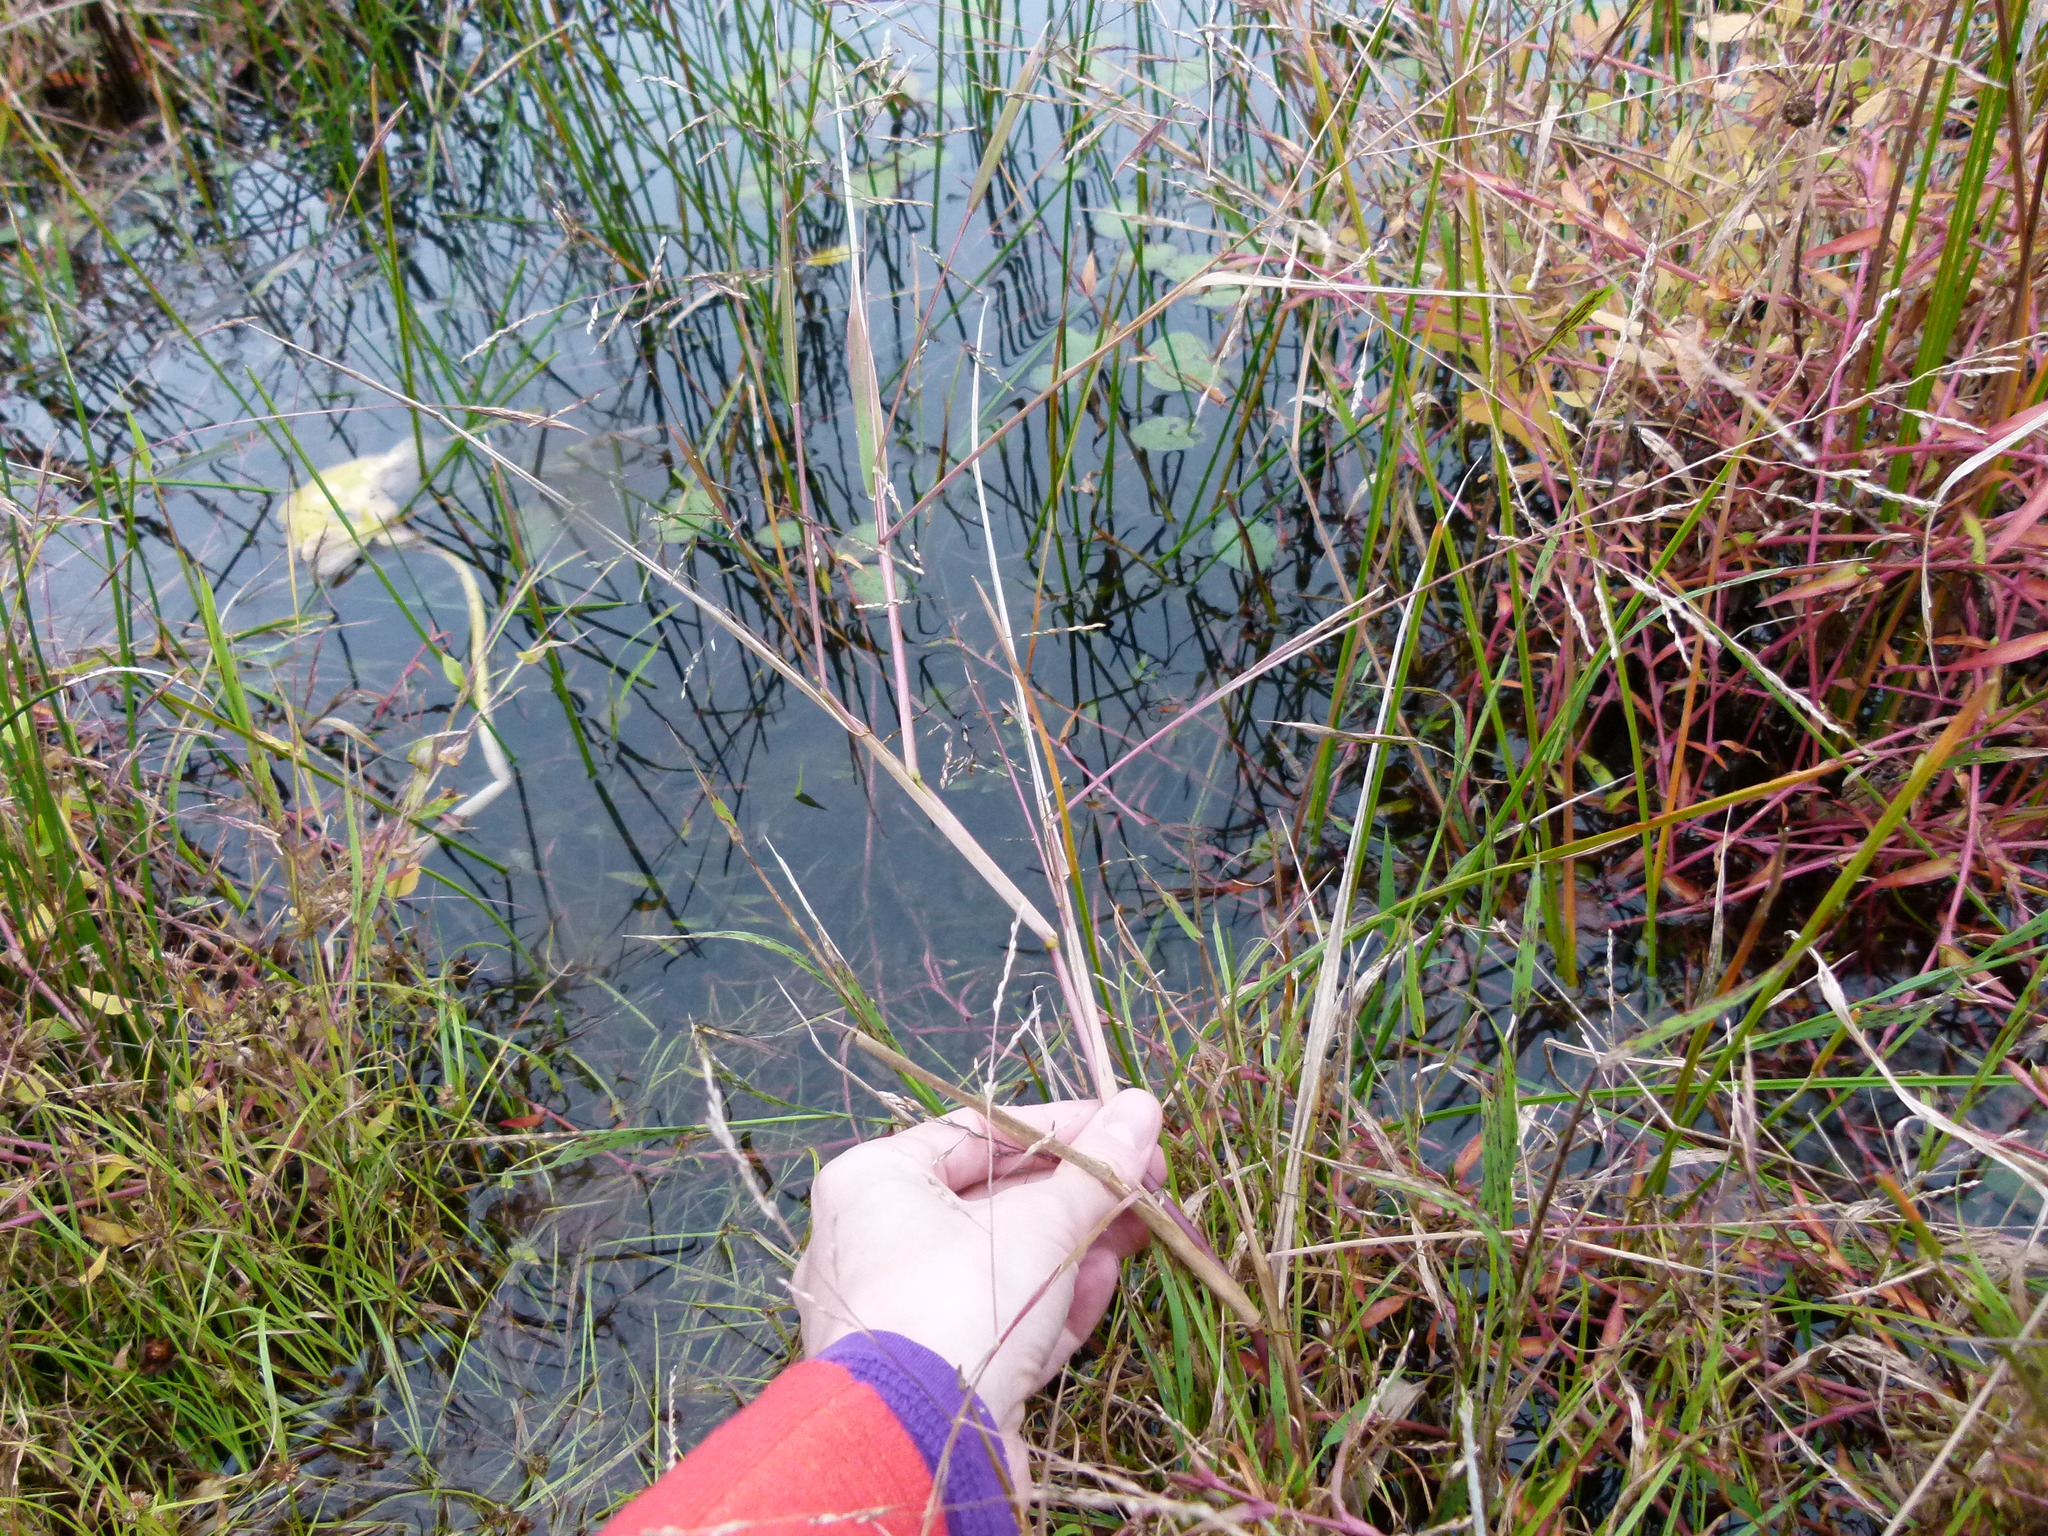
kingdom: Plantae
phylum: Tracheophyta
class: Liliopsida
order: Poales
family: Poaceae
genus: Leersia
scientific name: Leersia oryzoides
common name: Cut-grass
